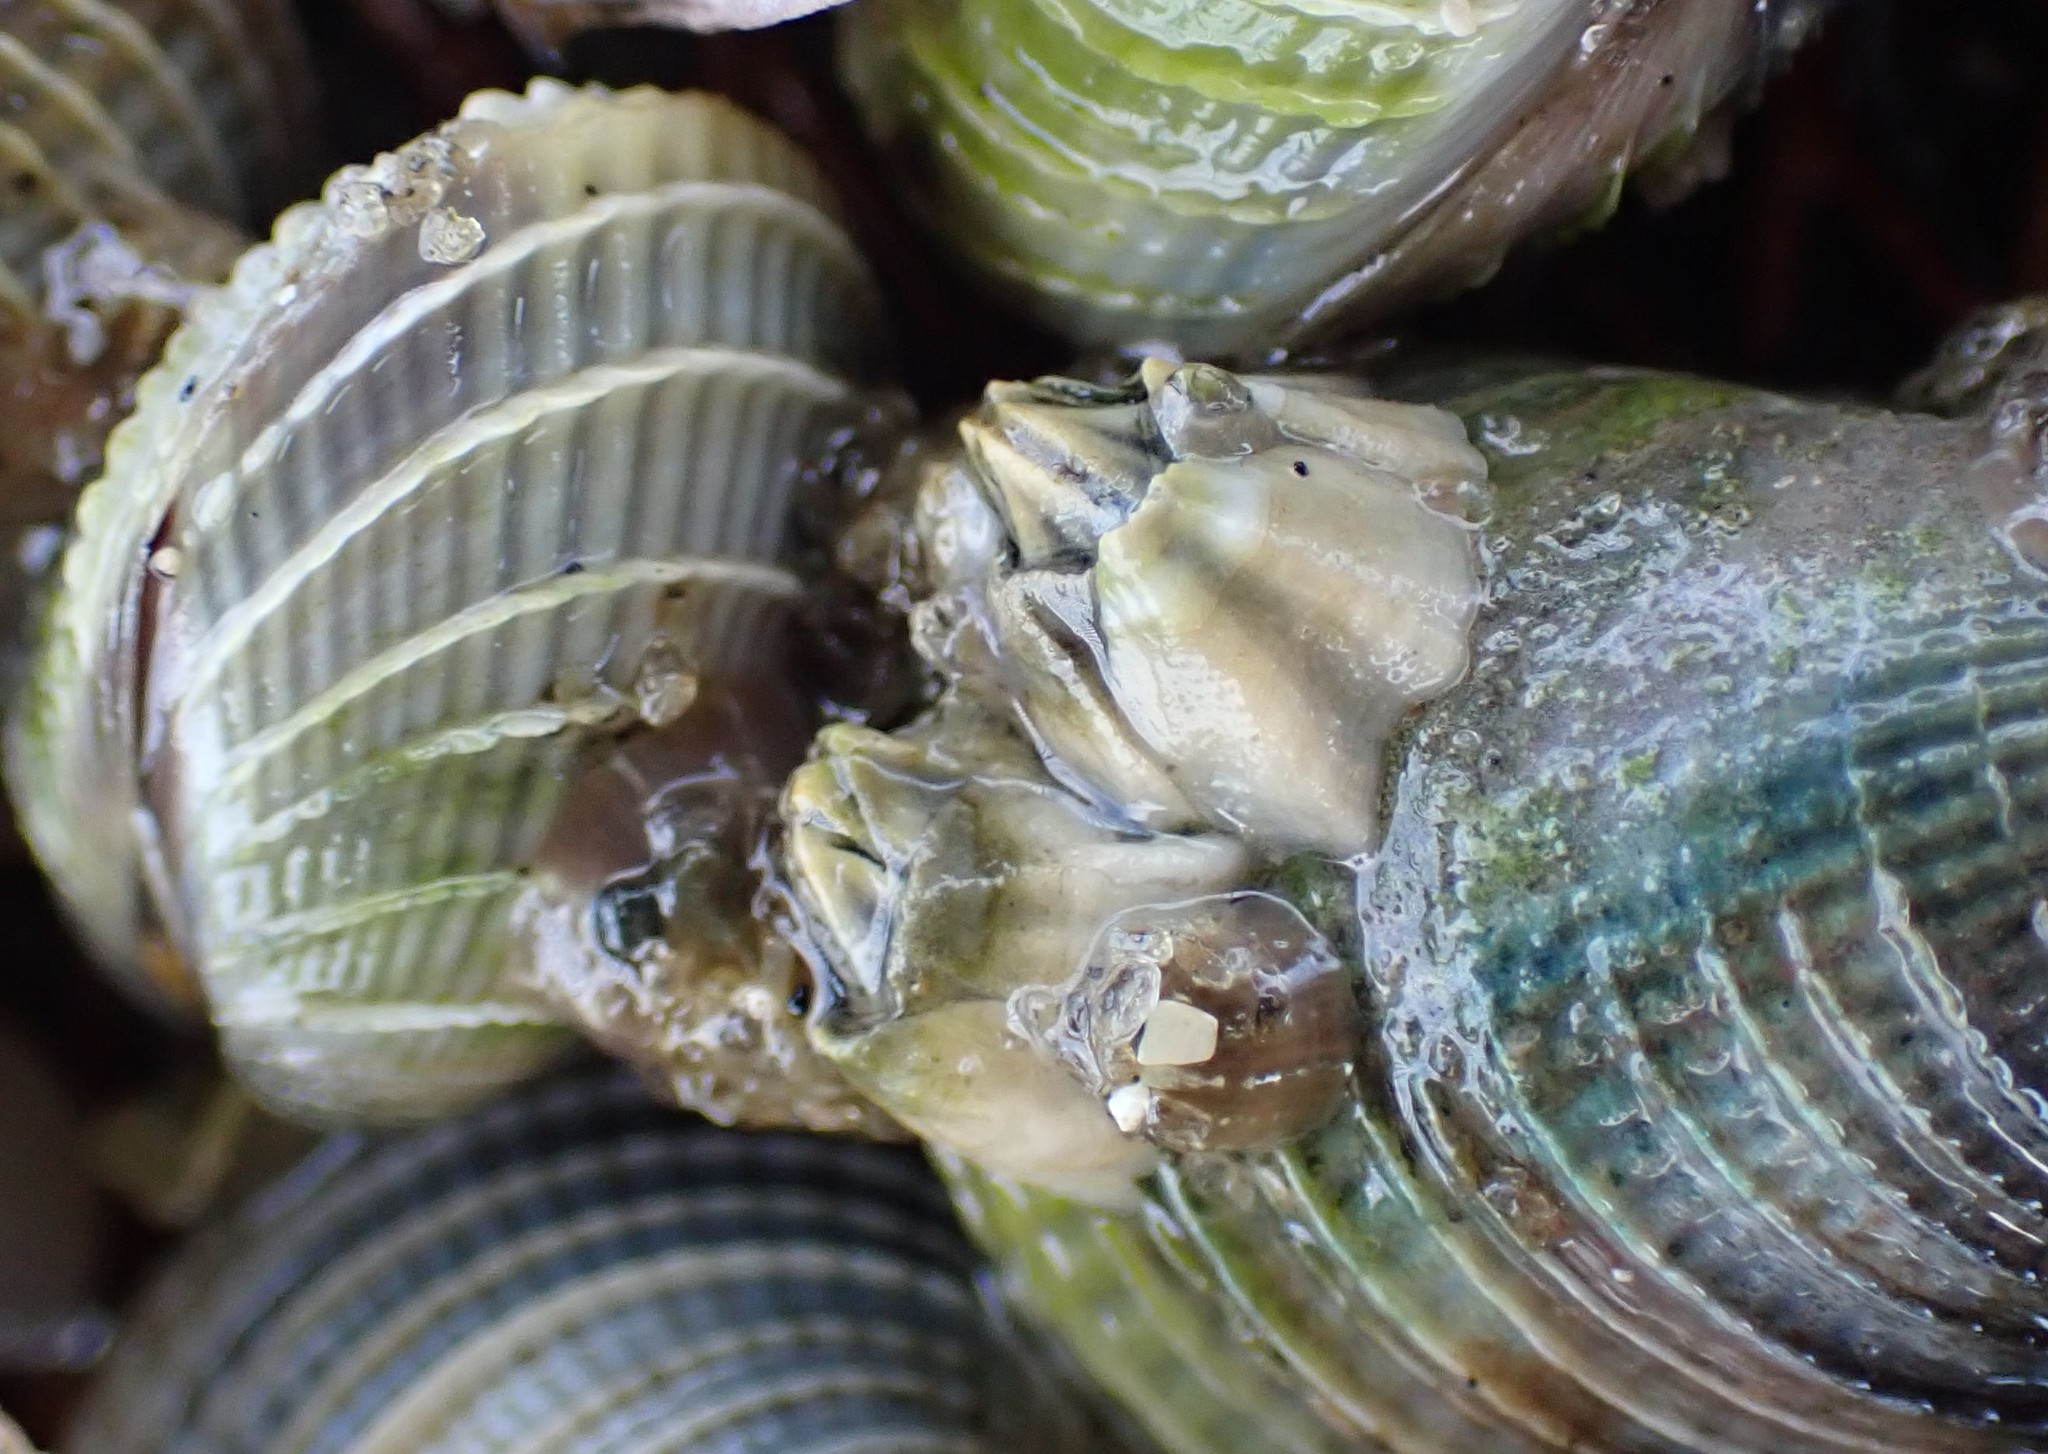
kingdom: Animalia
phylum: Arthropoda
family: Elminiidae
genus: Austrominius
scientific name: Austrominius modestus
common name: Australasian barnacle
